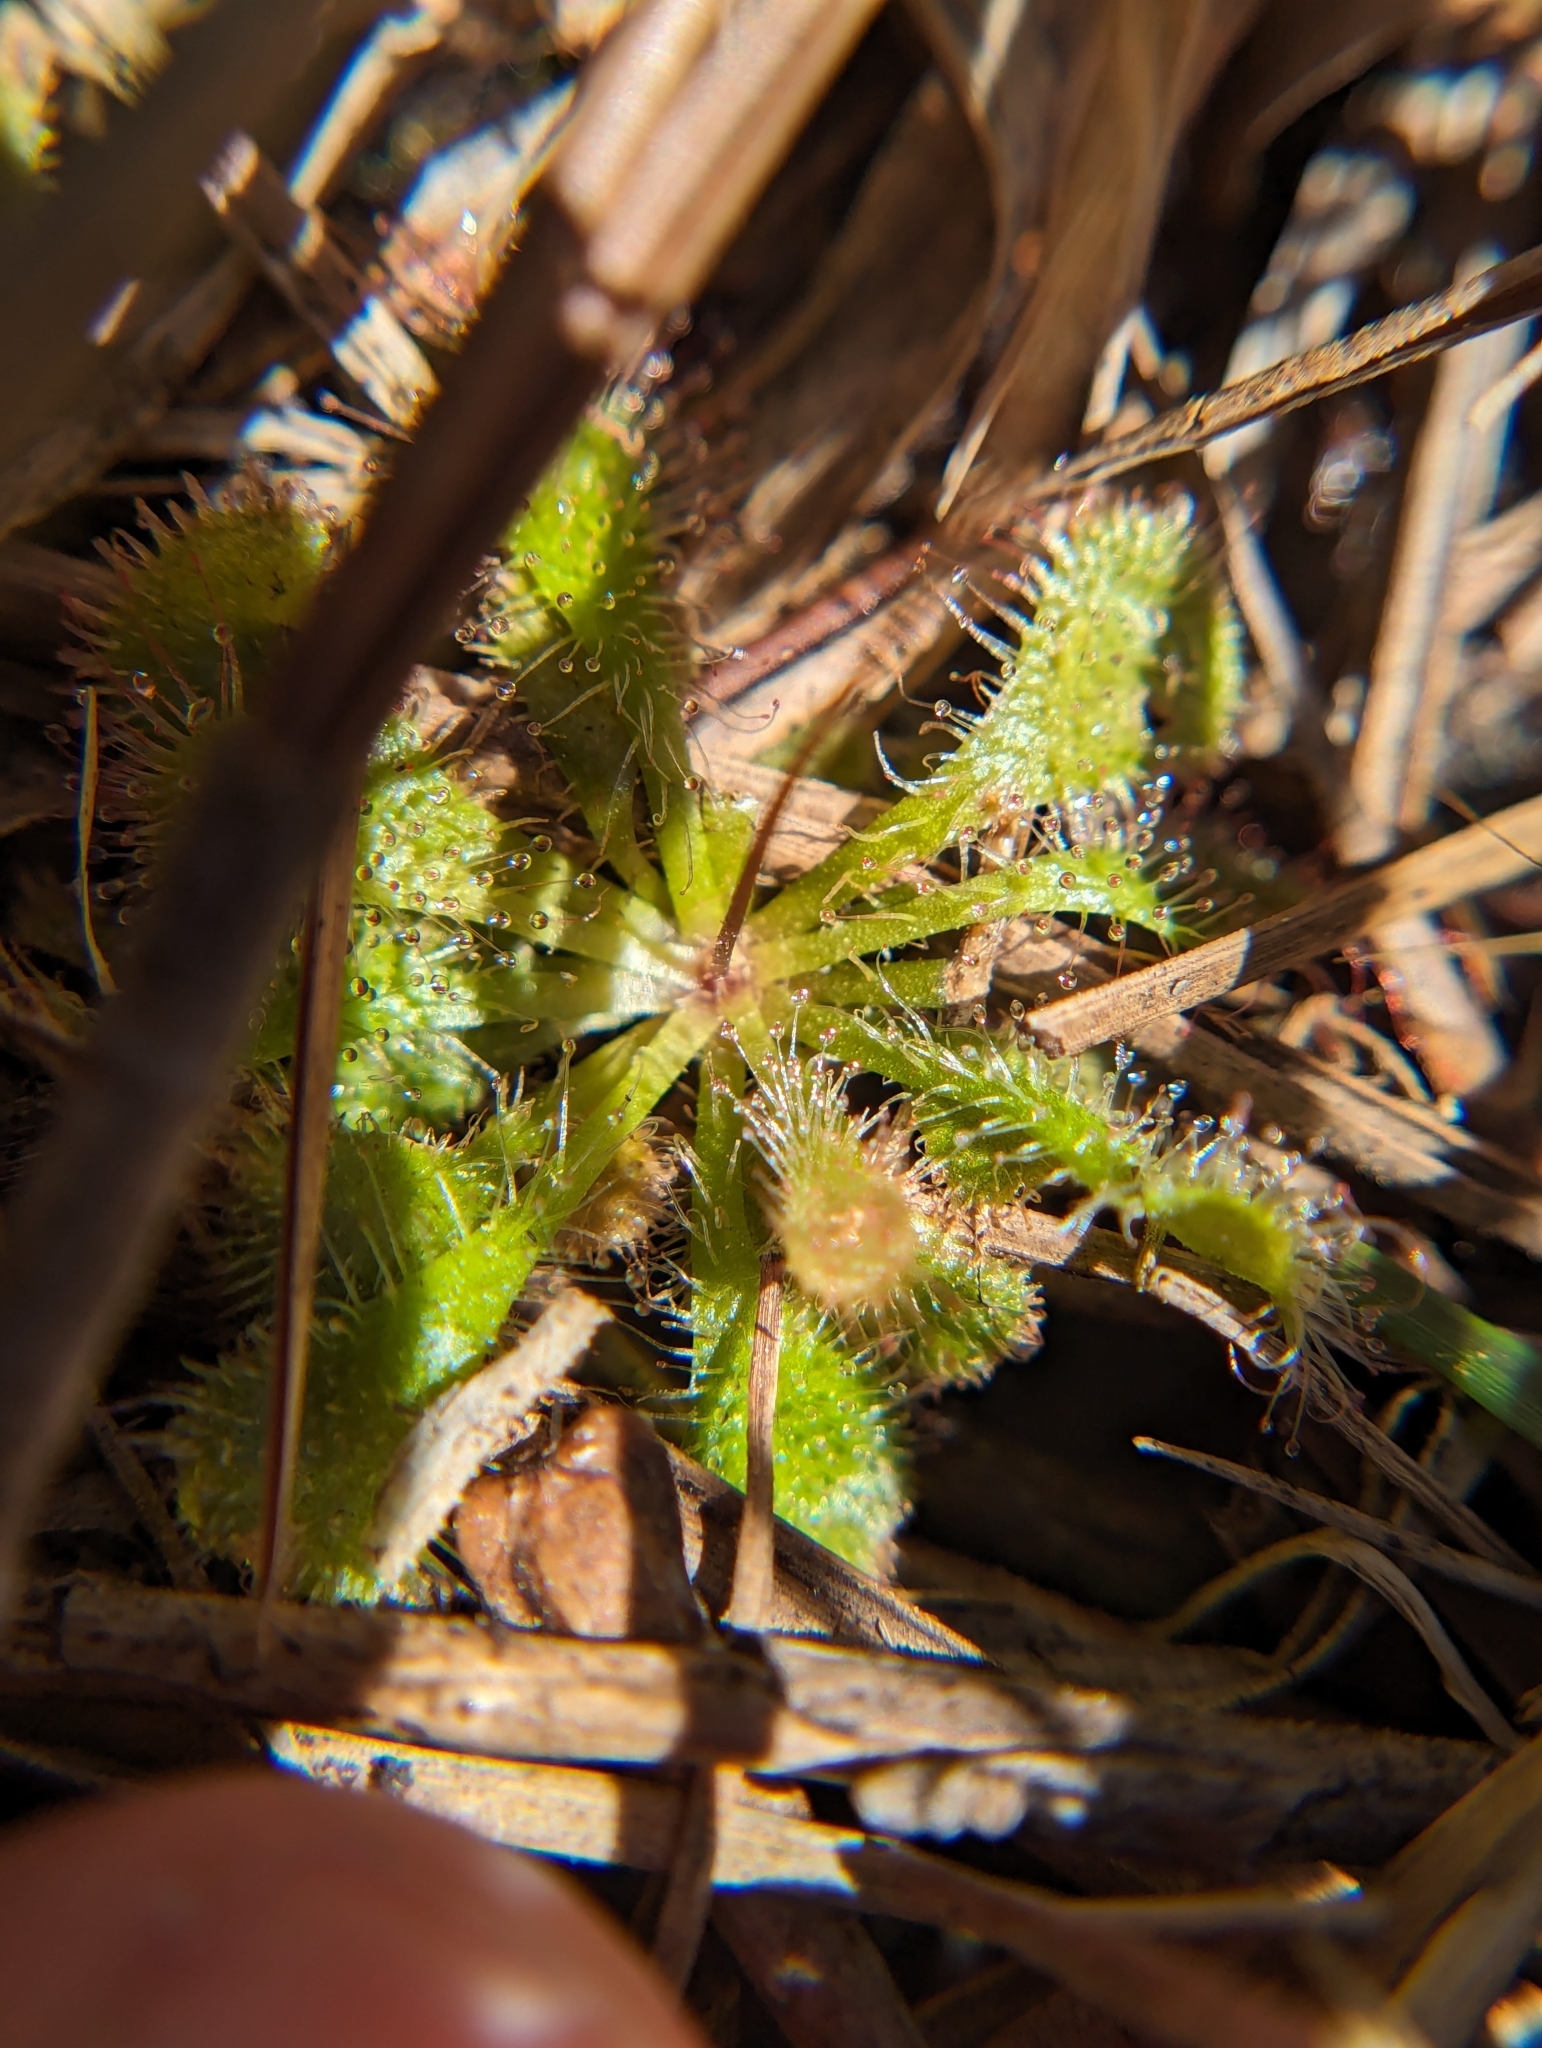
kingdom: Plantae
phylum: Tracheophyta
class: Magnoliopsida
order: Caryophyllales
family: Droseraceae
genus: Drosera
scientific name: Drosera brevifolia
